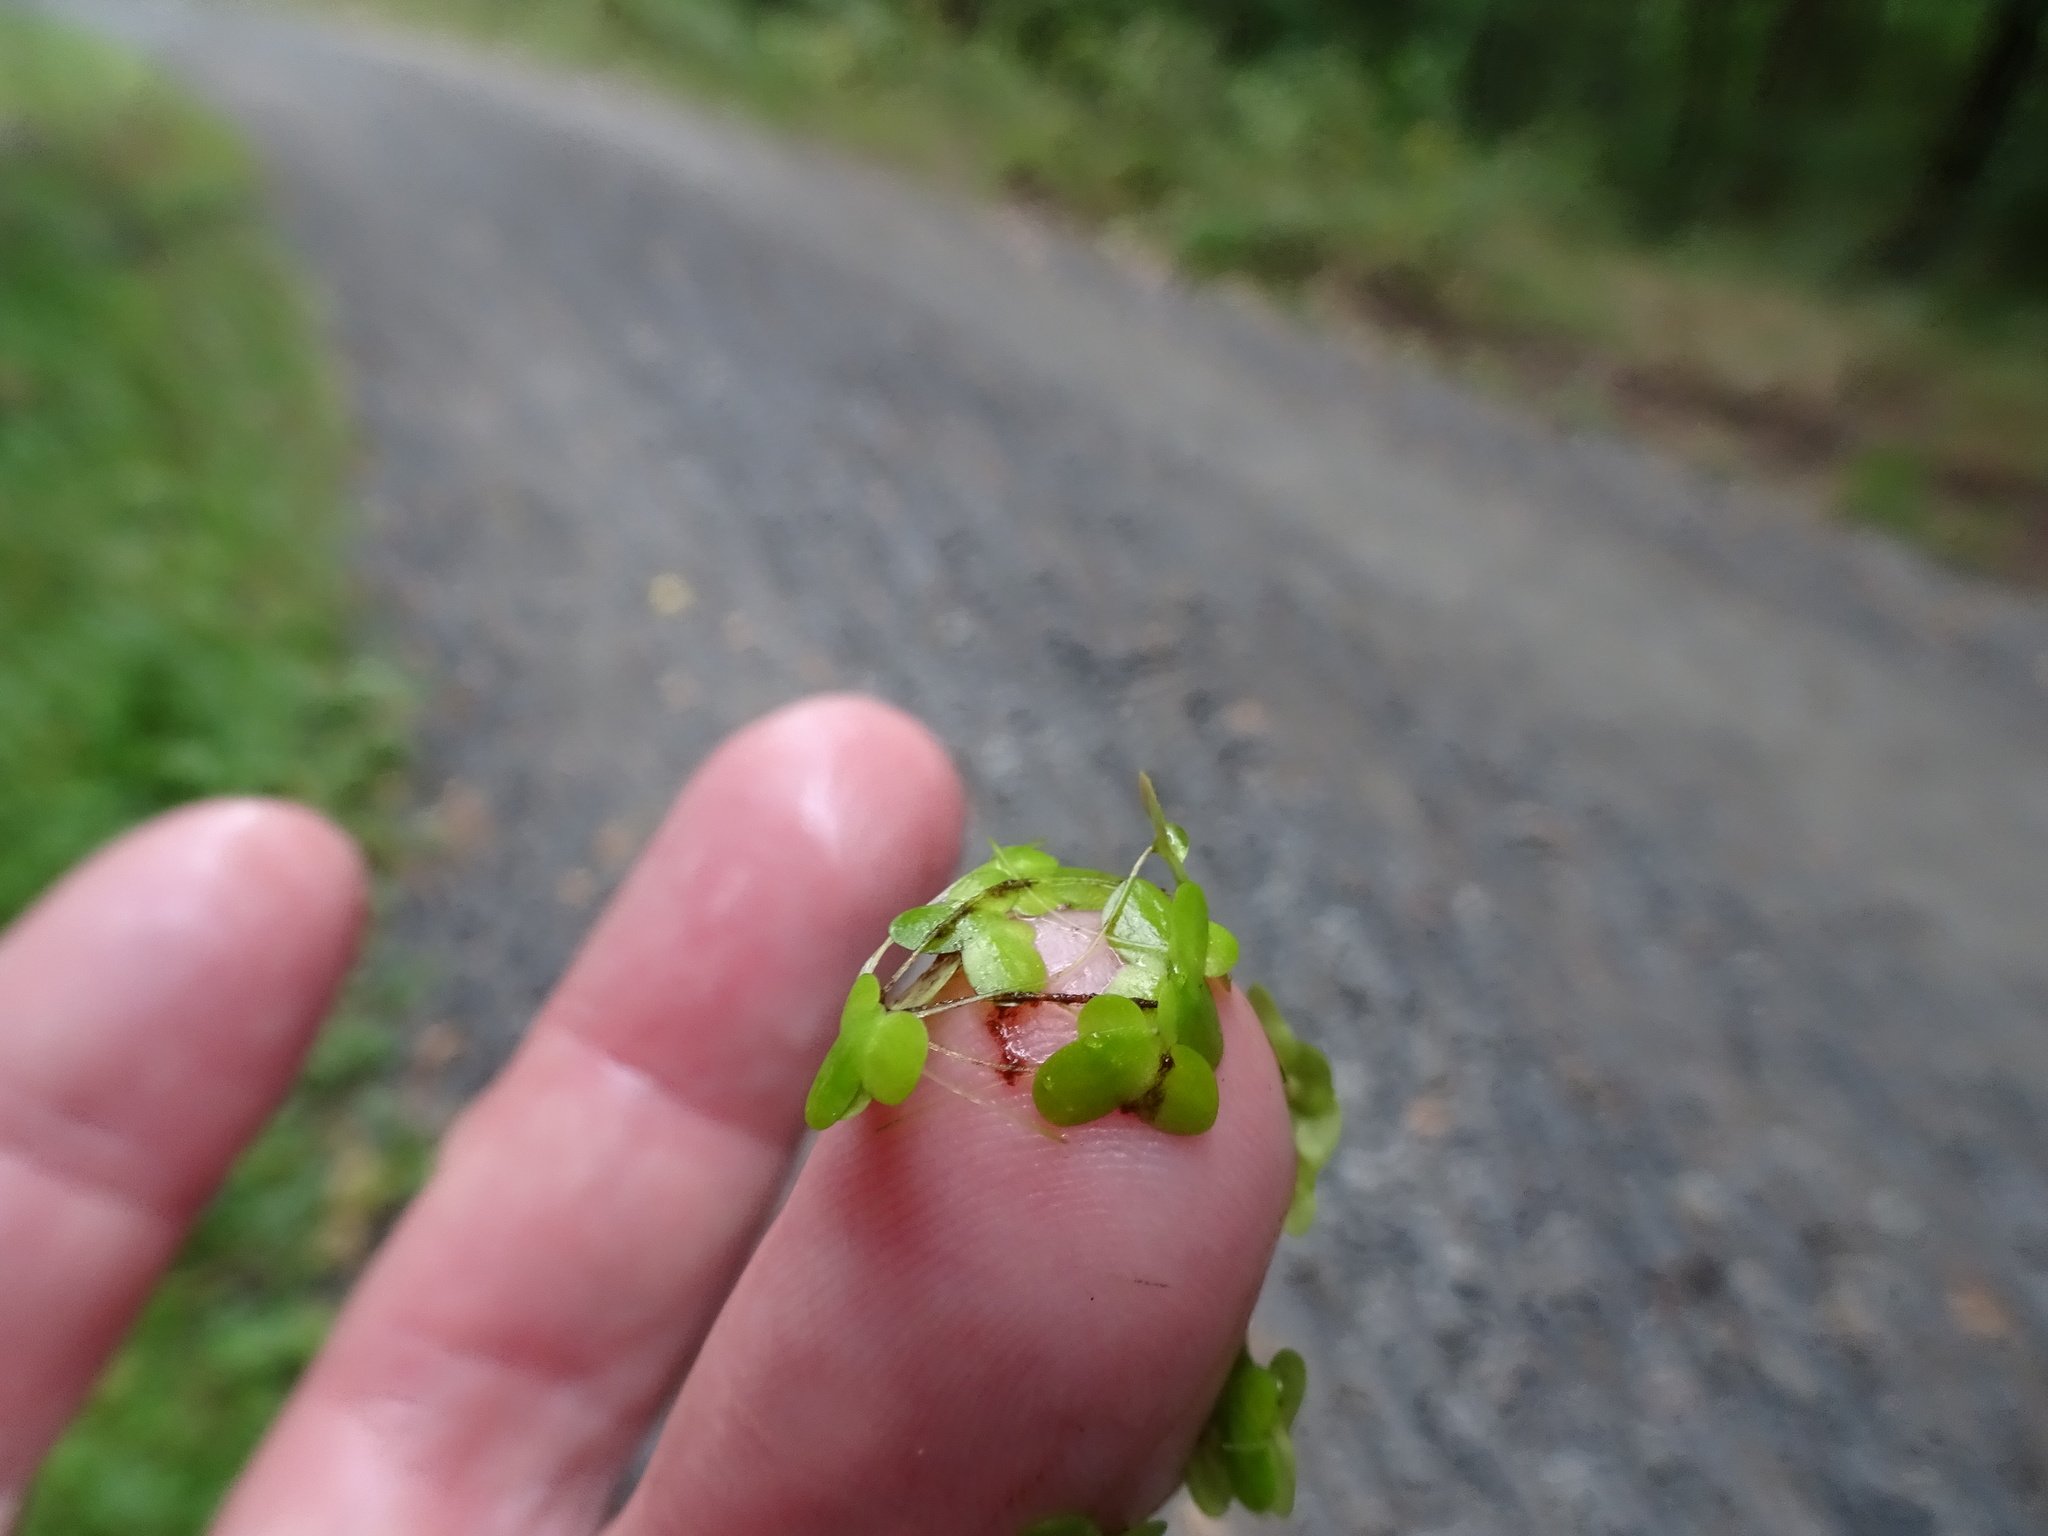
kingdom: Plantae
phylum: Tracheophyta
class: Liliopsida
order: Alismatales
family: Araceae
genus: Lemna
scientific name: Lemna minor
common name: Common duckweed
